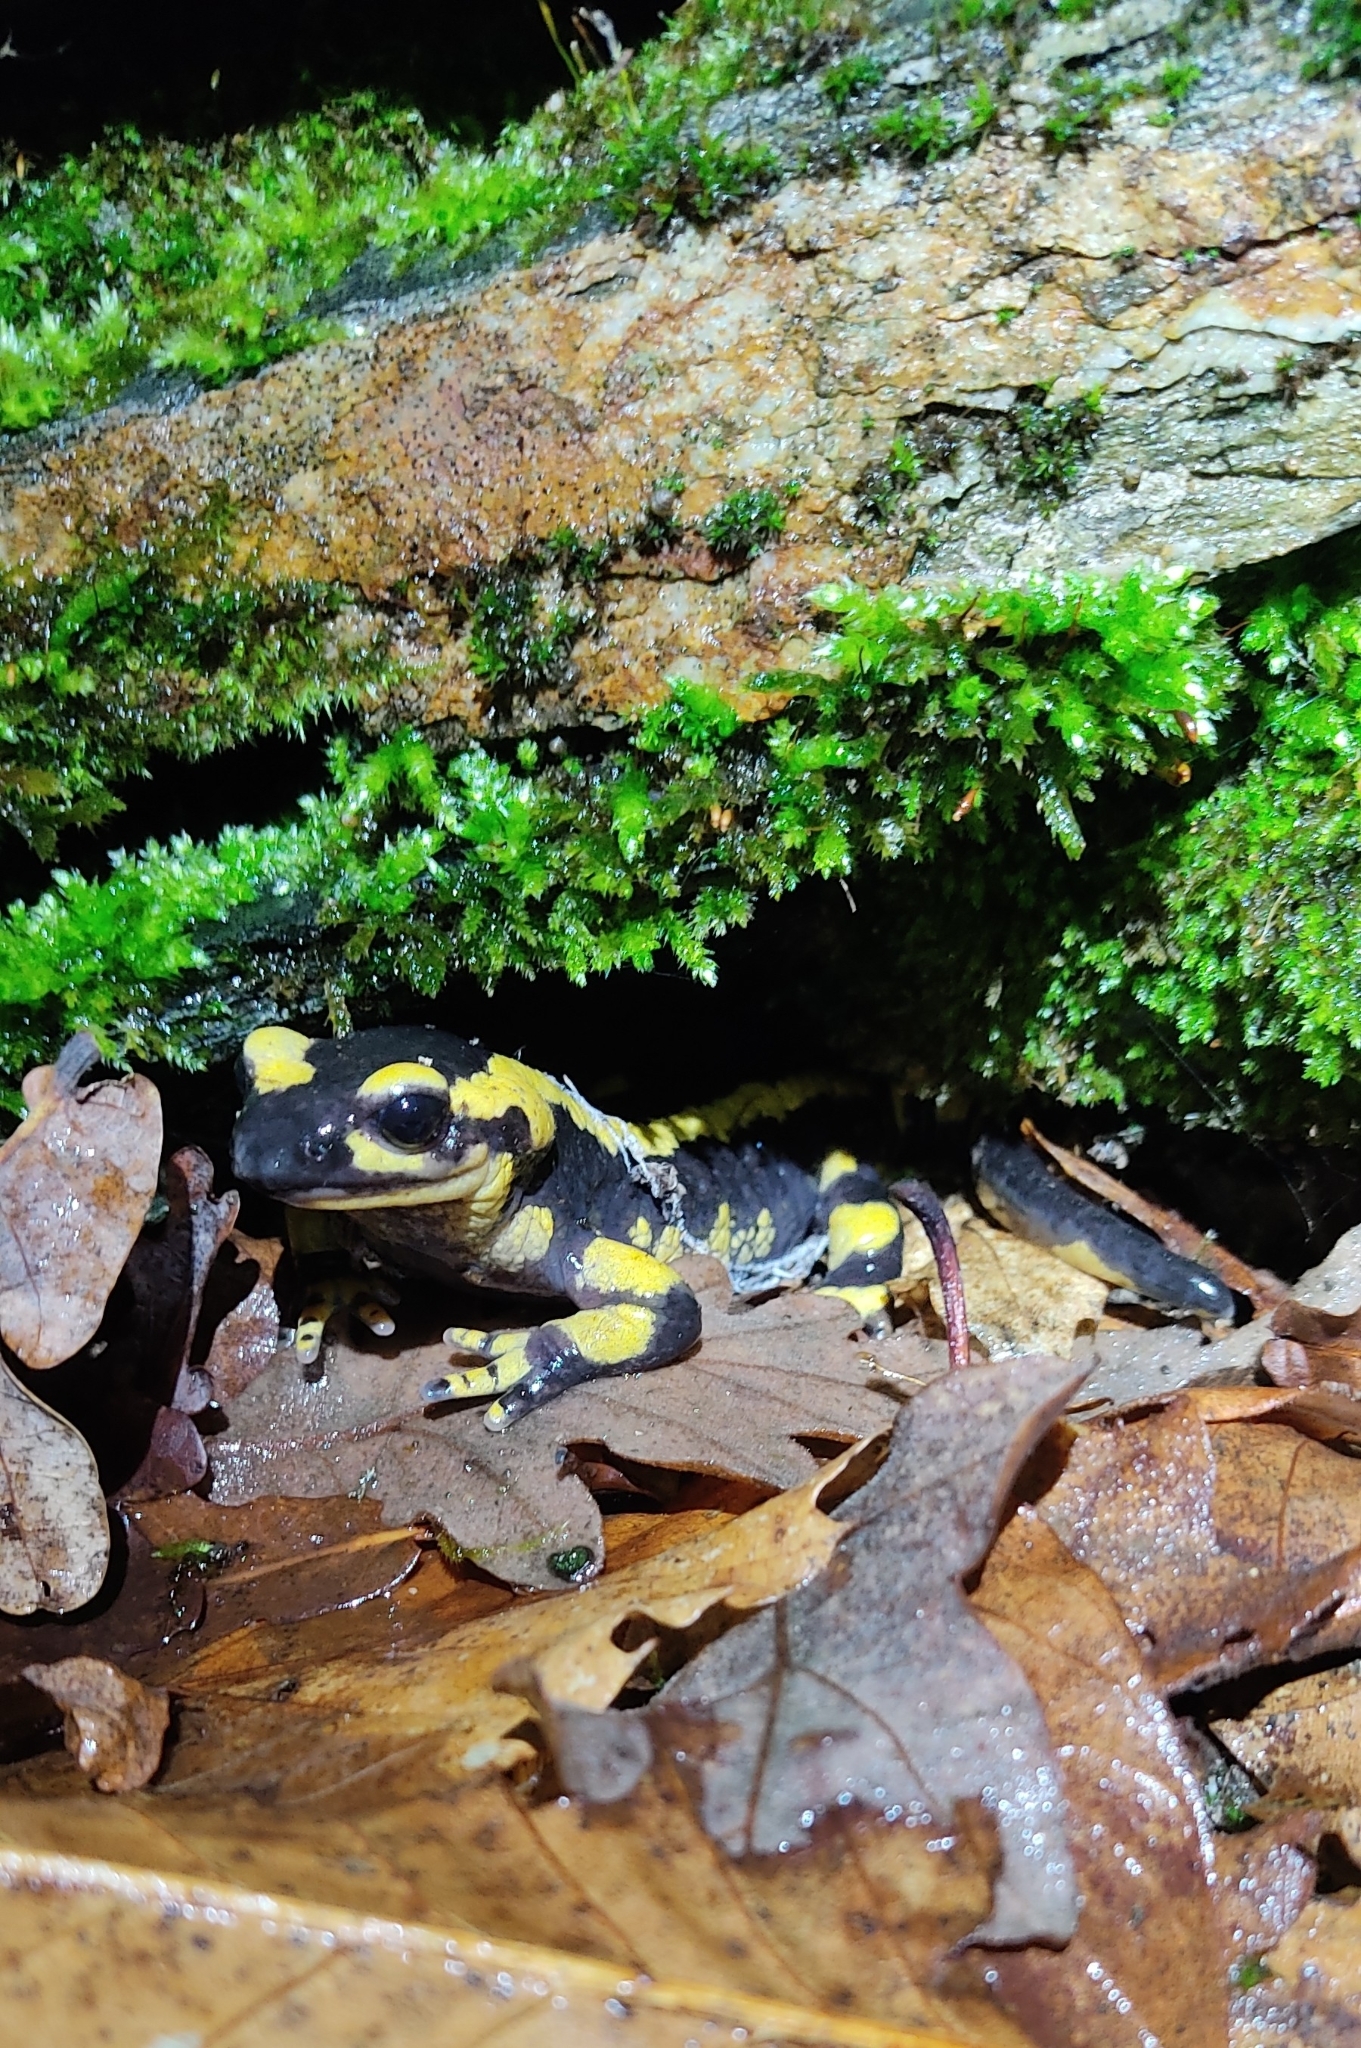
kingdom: Animalia
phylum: Chordata
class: Amphibia
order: Caudata
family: Salamandridae
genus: Salamandra
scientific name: Salamandra salamandra
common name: Fire salamander
